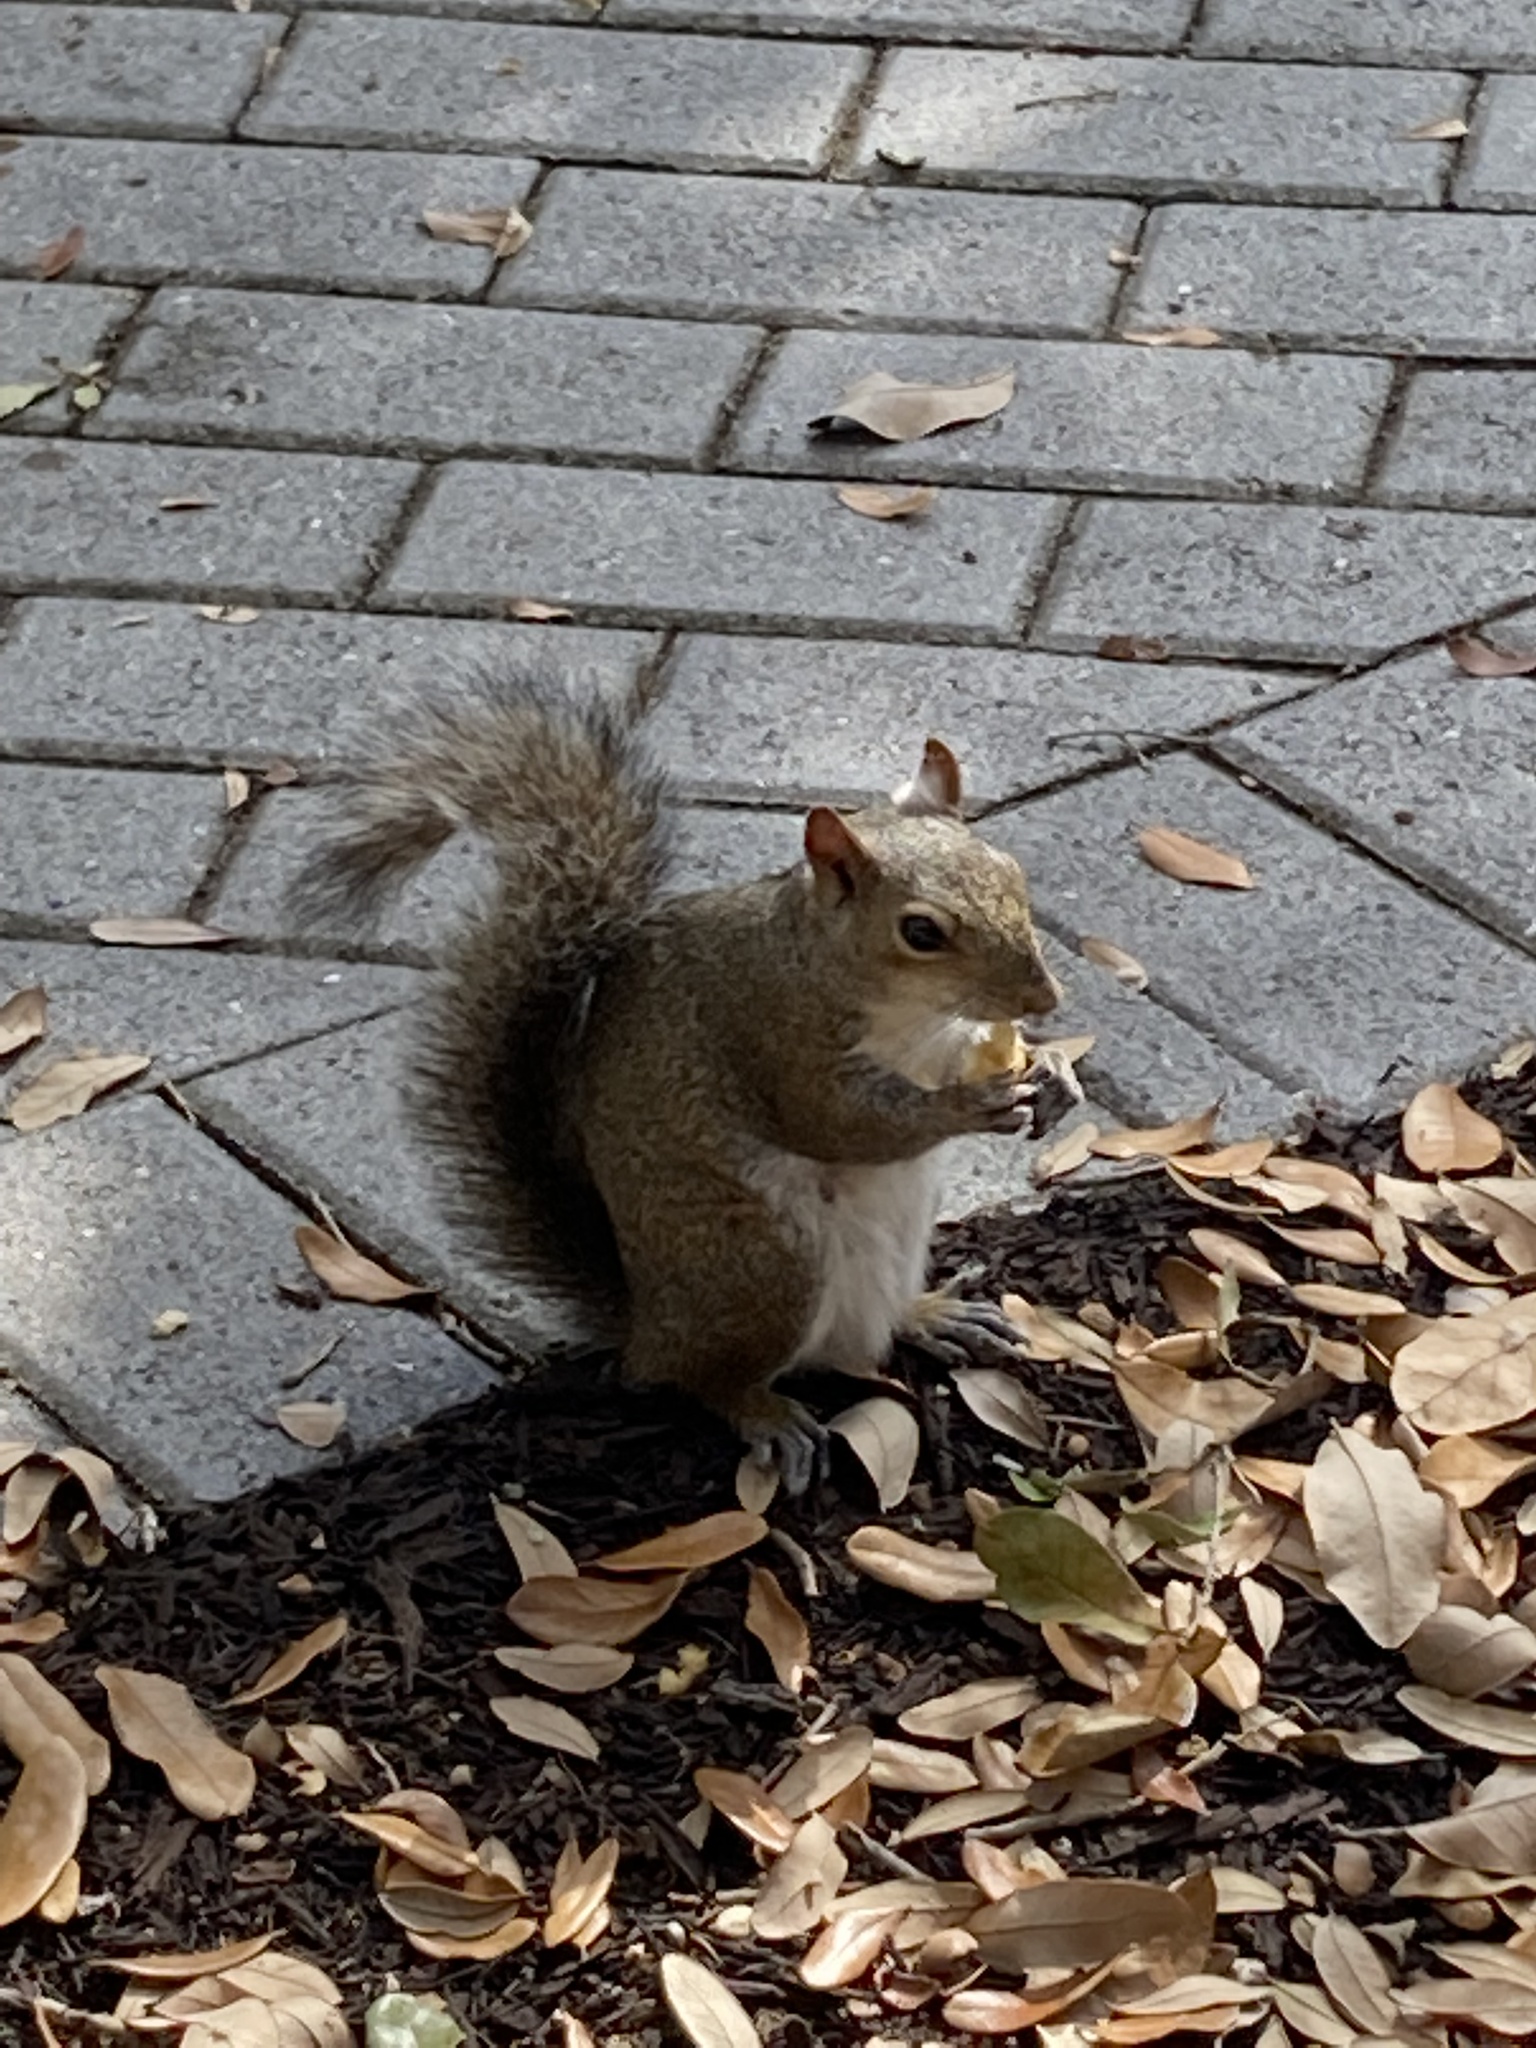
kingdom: Animalia
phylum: Chordata
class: Mammalia
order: Rodentia
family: Sciuridae
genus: Sciurus
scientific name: Sciurus carolinensis
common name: Eastern gray squirrel
